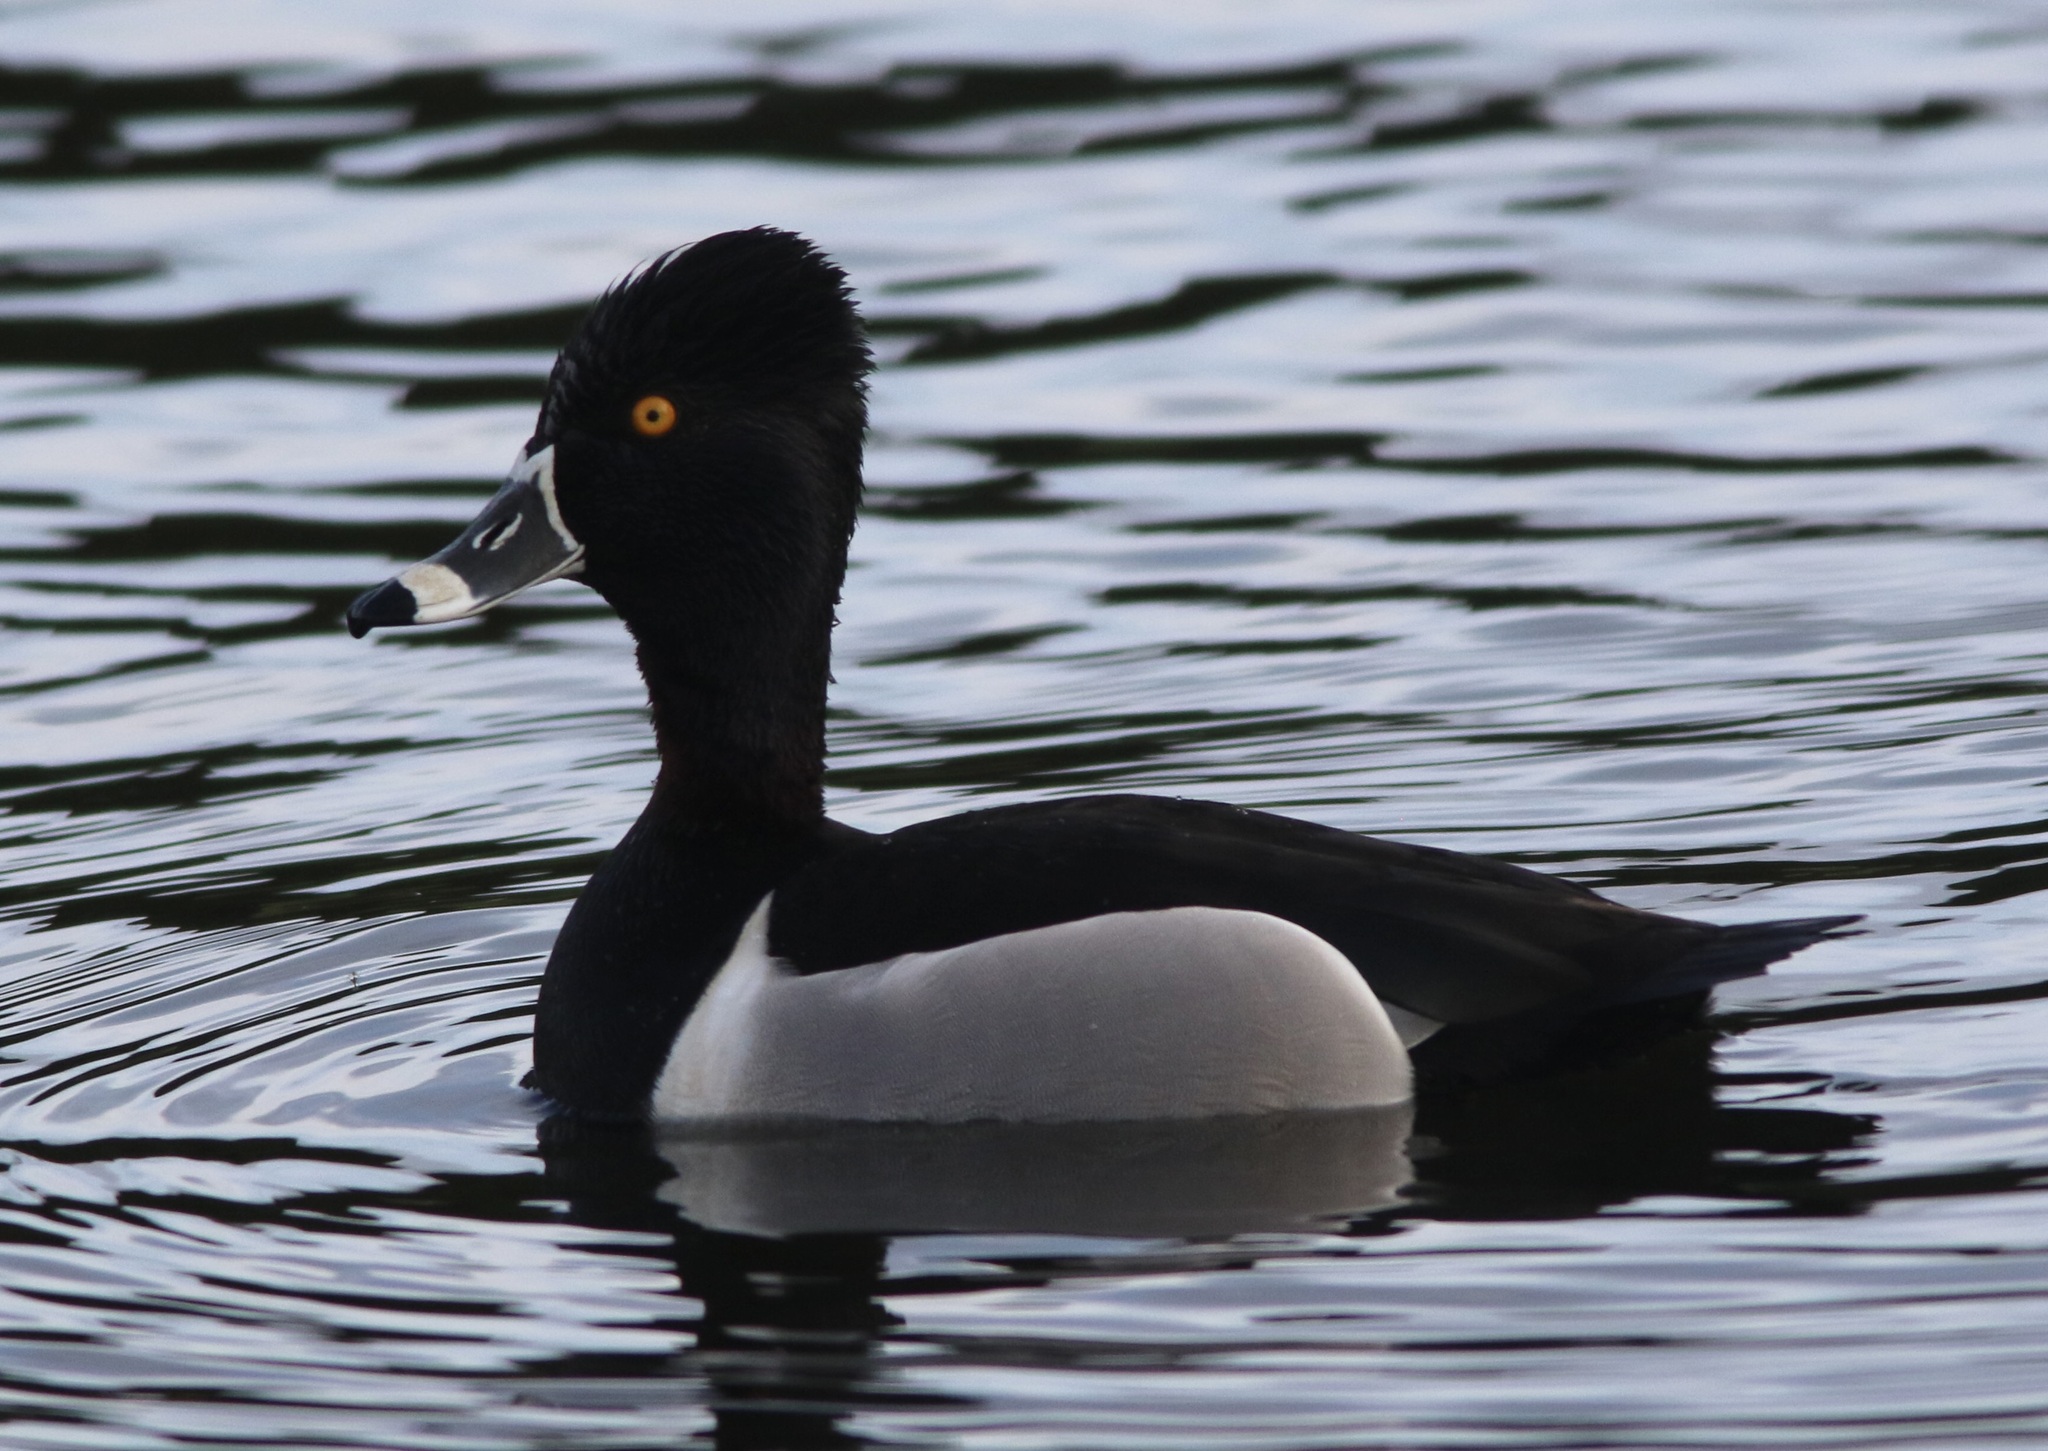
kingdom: Animalia
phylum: Chordata
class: Aves
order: Anseriformes
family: Anatidae
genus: Aythya
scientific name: Aythya collaris
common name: Ring-necked duck
